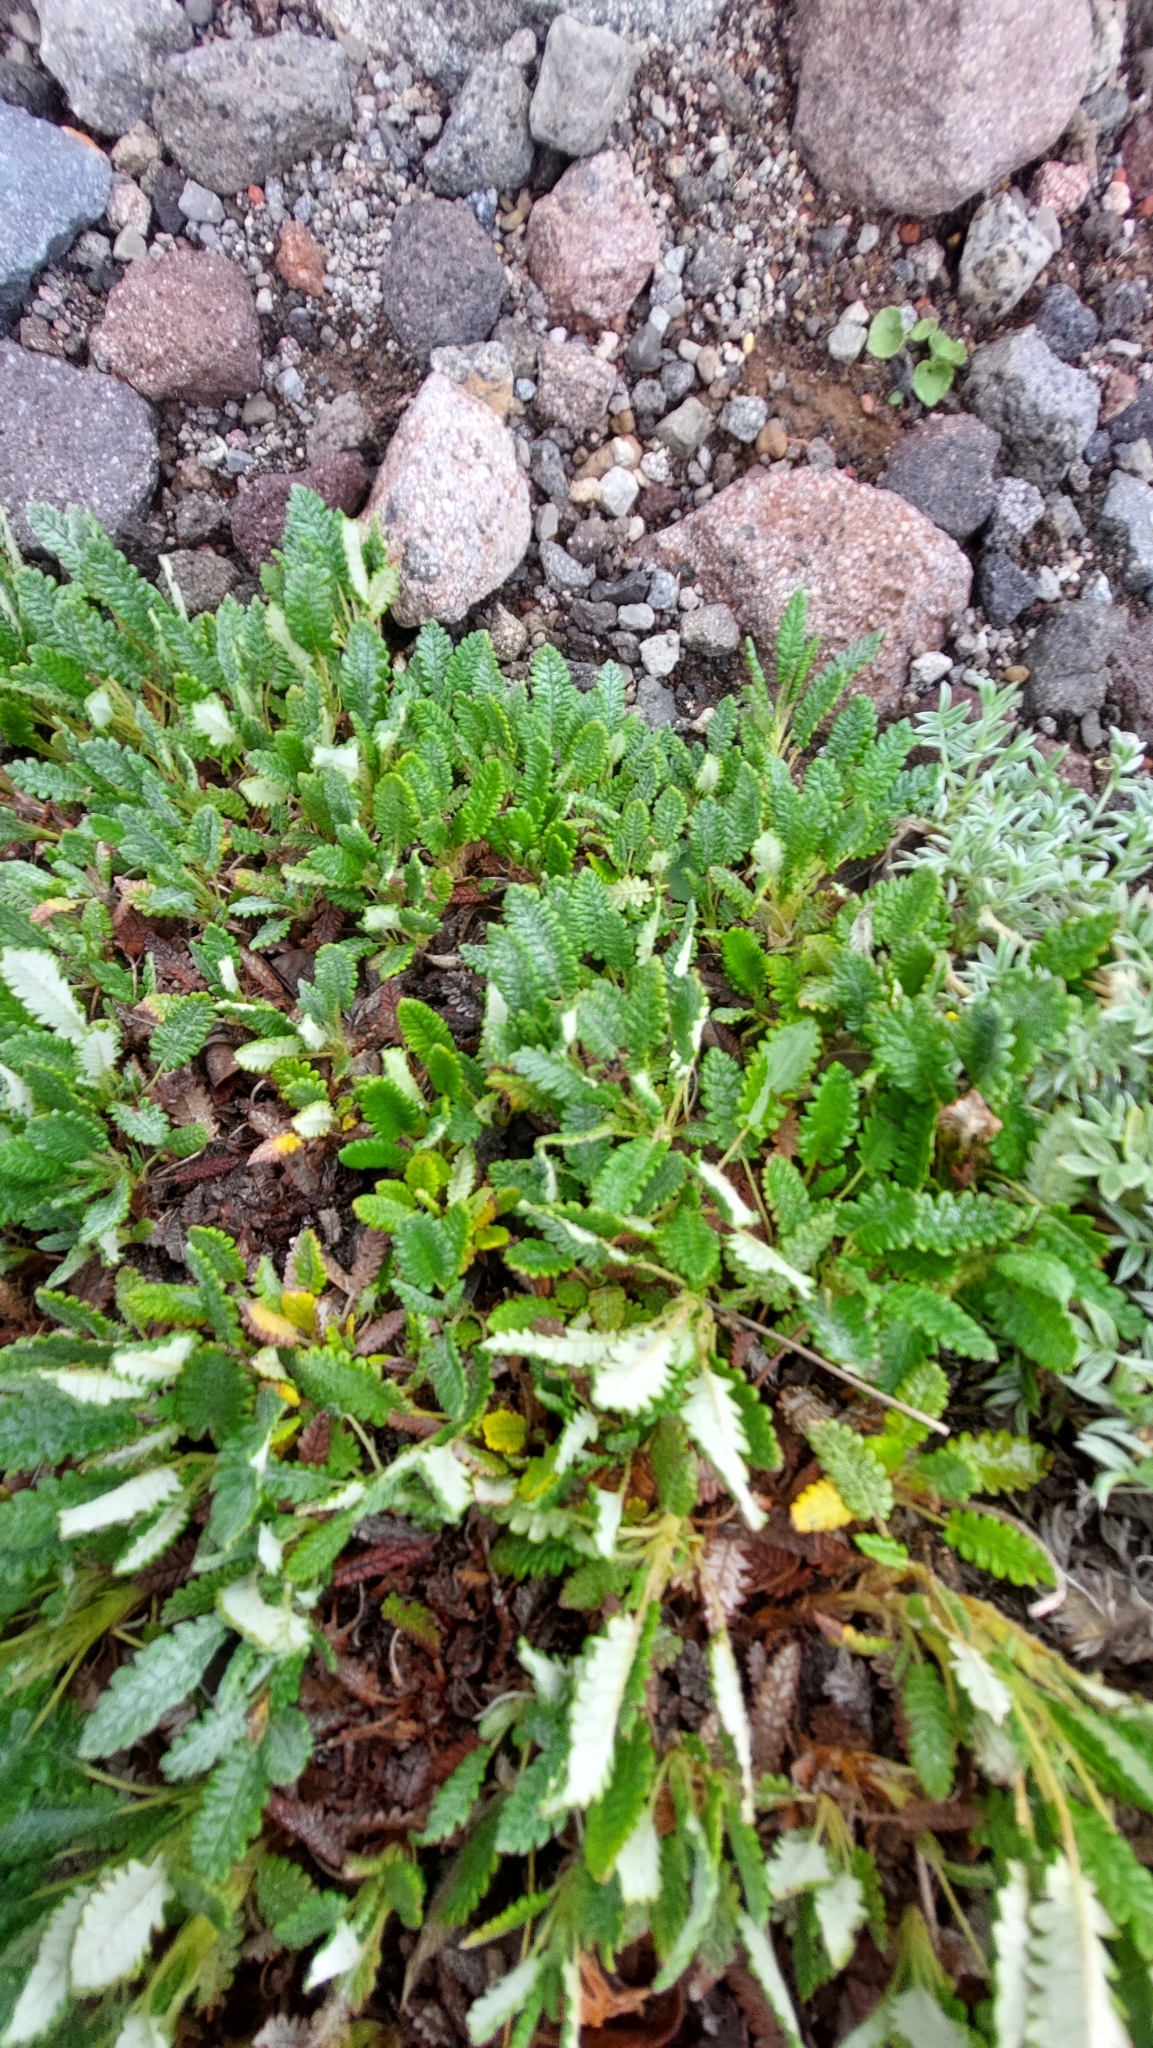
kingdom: Plantae
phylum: Tracheophyta
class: Magnoliopsida
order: Rosales
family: Rosaceae
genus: Dryas
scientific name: Dryas octopetala
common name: Eight-petal mountain-avens
